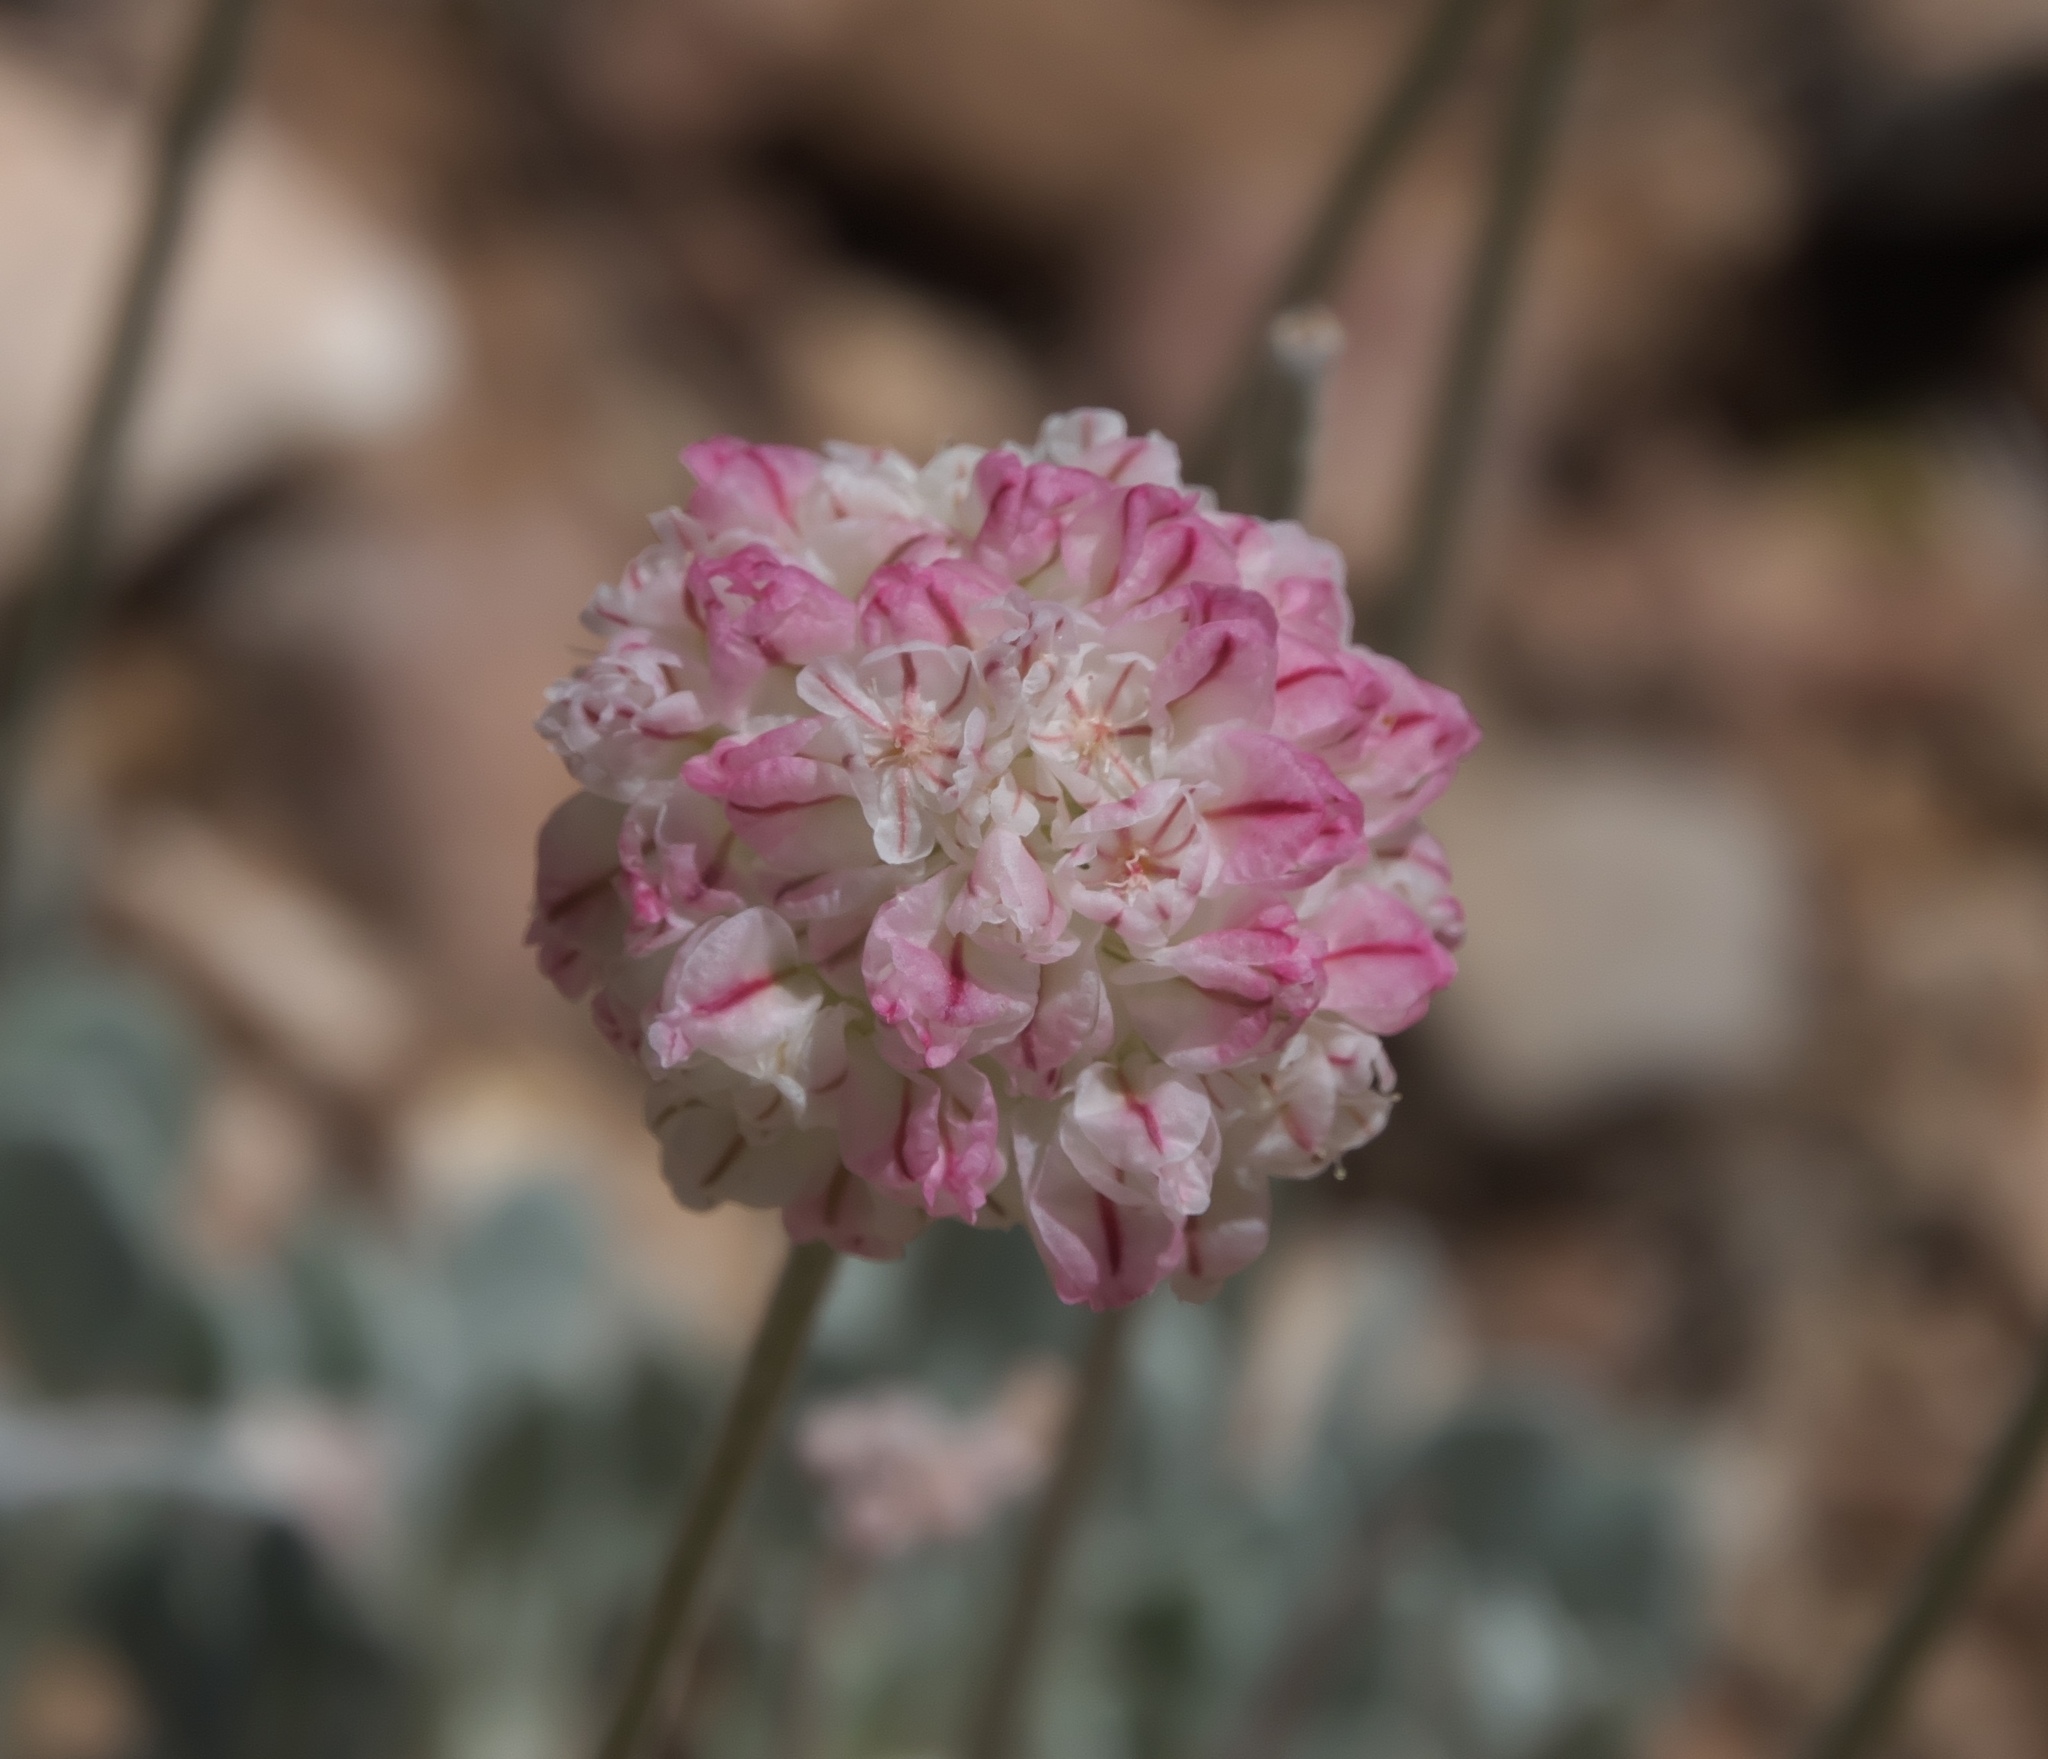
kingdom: Plantae
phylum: Tracheophyta
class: Magnoliopsida
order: Caryophyllales
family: Polygonaceae
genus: Eriogonum
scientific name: Eriogonum umbellatum
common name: Sulfur-buckwheat
